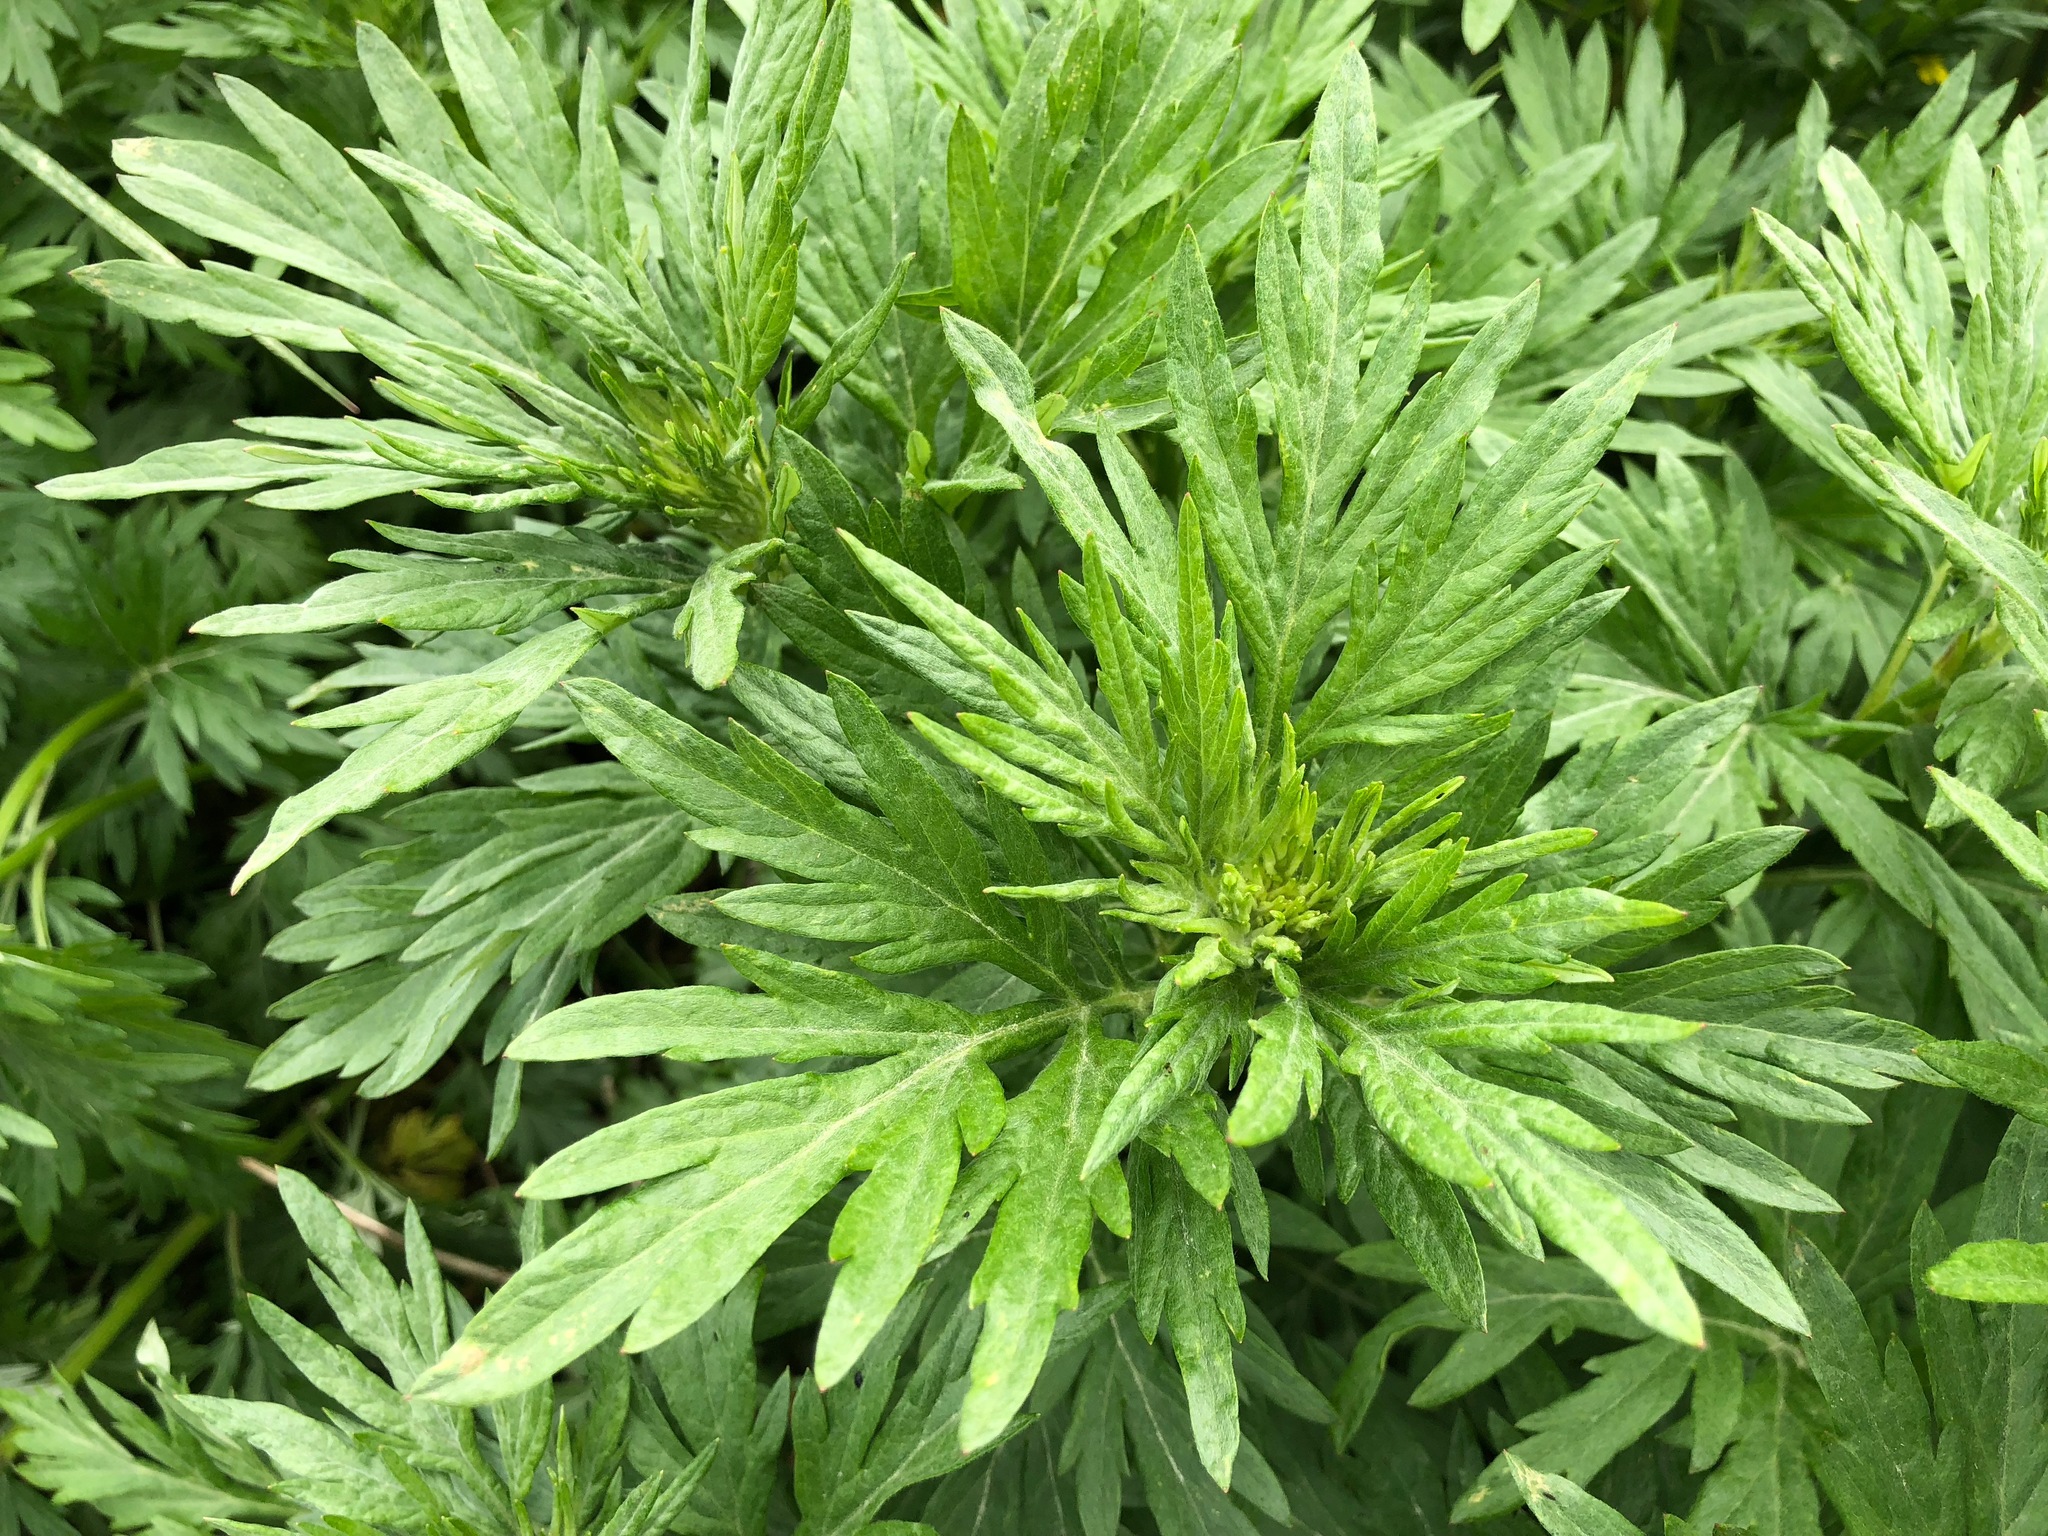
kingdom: Plantae
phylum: Tracheophyta
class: Magnoliopsida
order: Asterales
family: Asteraceae
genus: Artemisia
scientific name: Artemisia tilesii
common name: Aleutian mugwort
